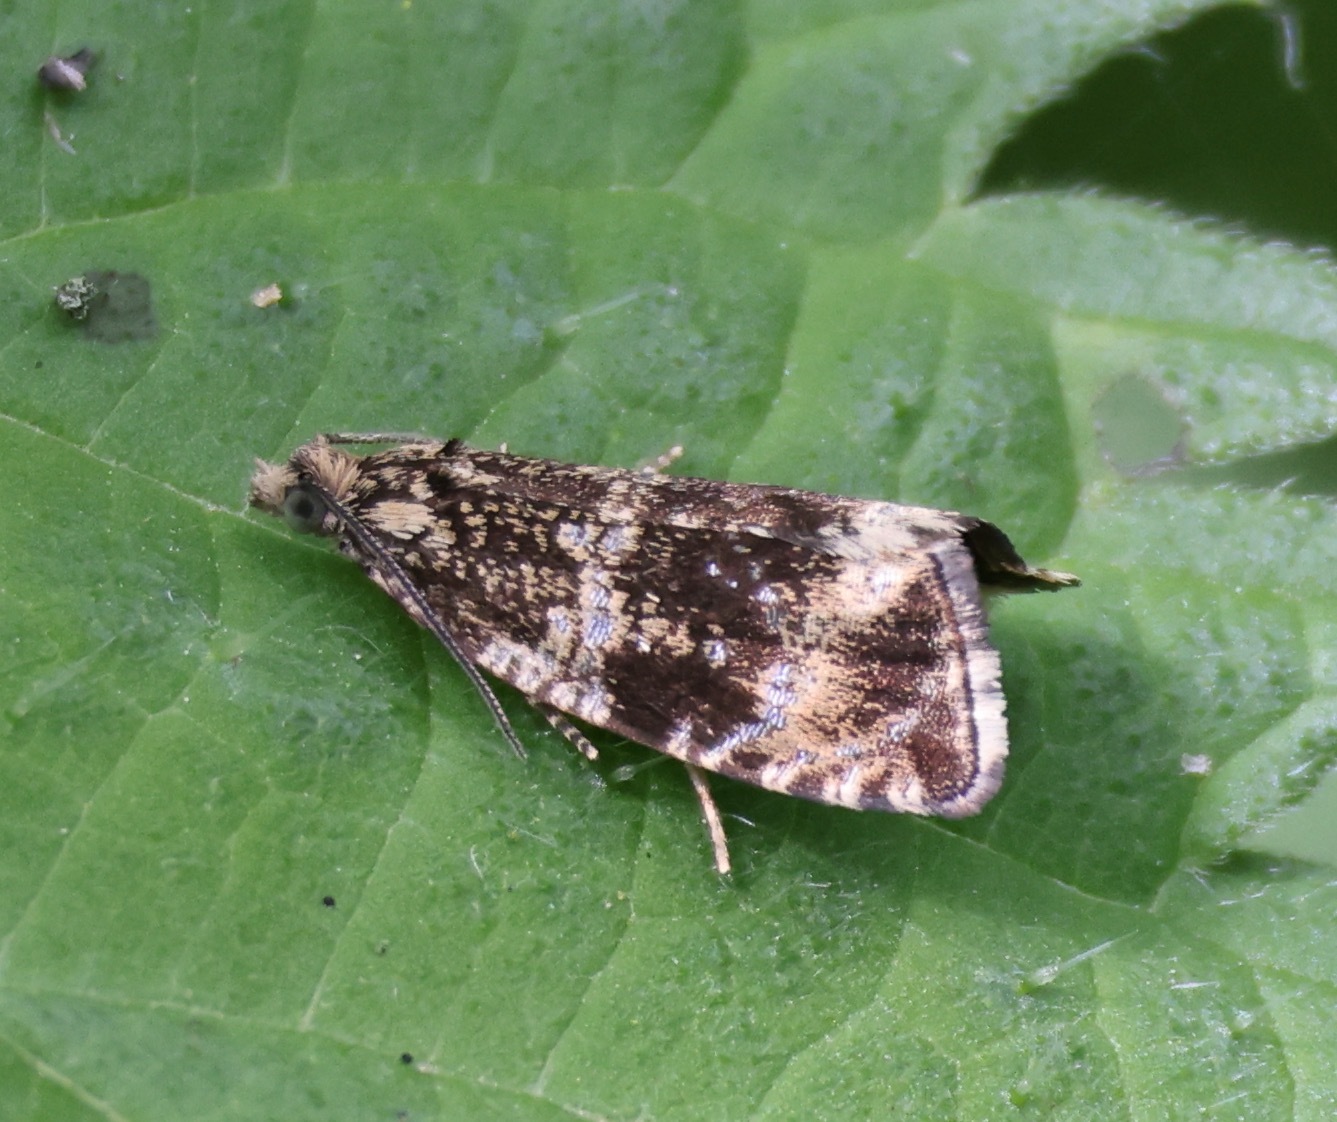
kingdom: Animalia
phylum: Arthropoda
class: Insecta
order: Lepidoptera
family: Tortricidae
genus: Syricoris
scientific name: Syricoris lacunana
